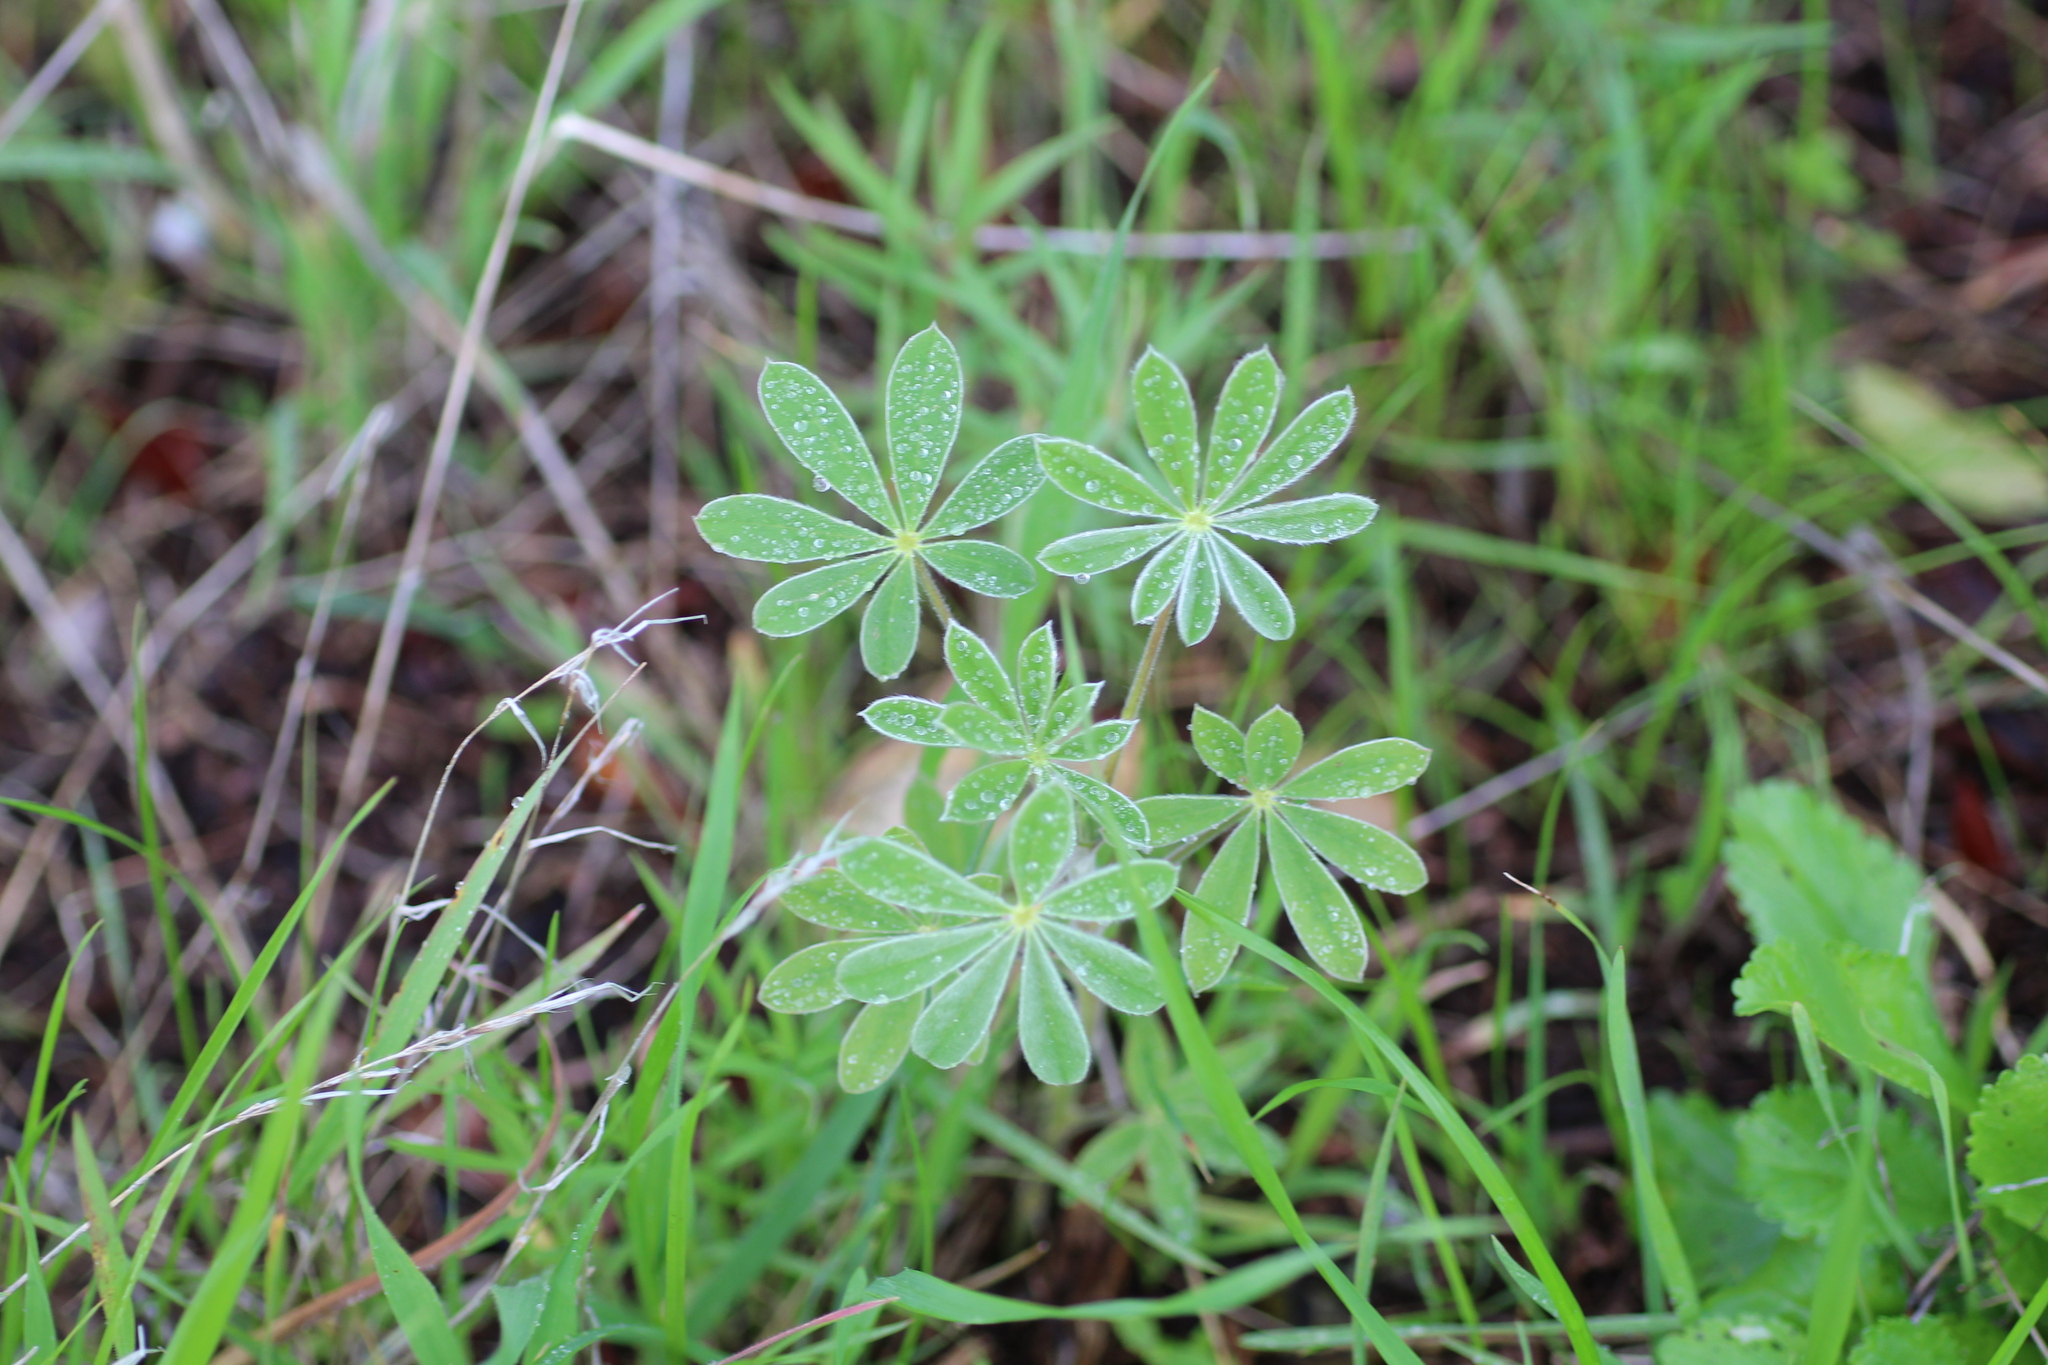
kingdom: Plantae
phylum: Tracheophyta
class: Magnoliopsida
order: Fabales
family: Fabaceae
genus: Lupinus
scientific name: Lupinus cosentinii
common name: Hairy blue lupin
